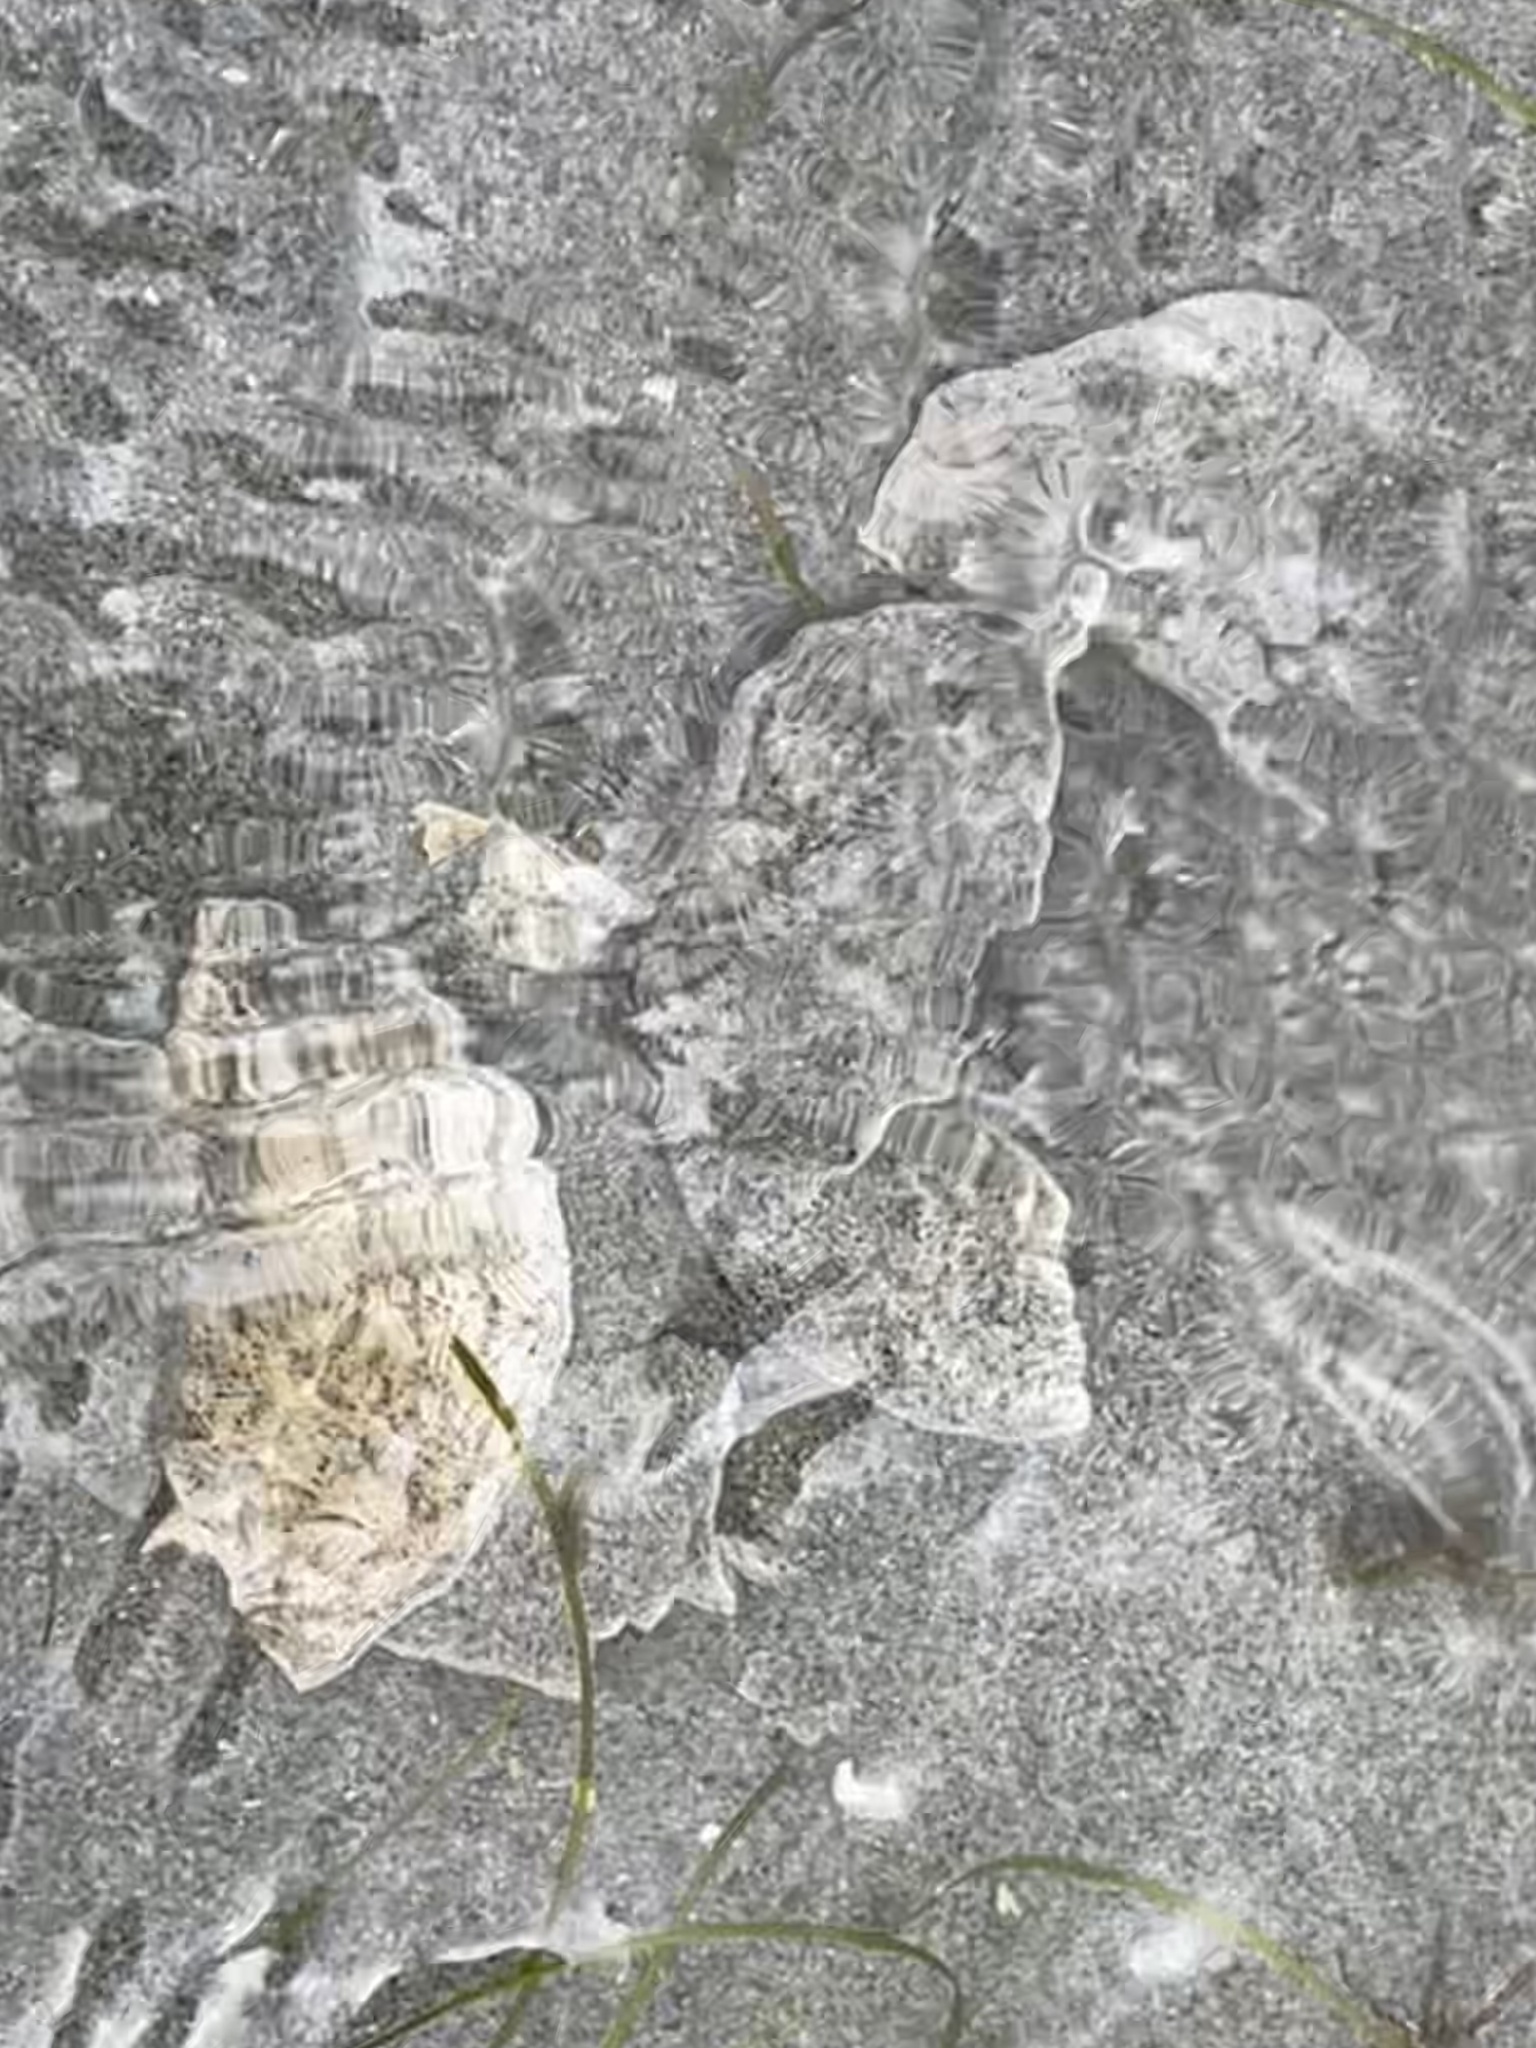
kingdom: Animalia
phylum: Echinodermata
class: Echinoidea
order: Echinolampadacea
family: Dendrasteridae
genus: Dendraster
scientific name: Dendraster excentricus
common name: Eccentric sand dollar sea urchin
